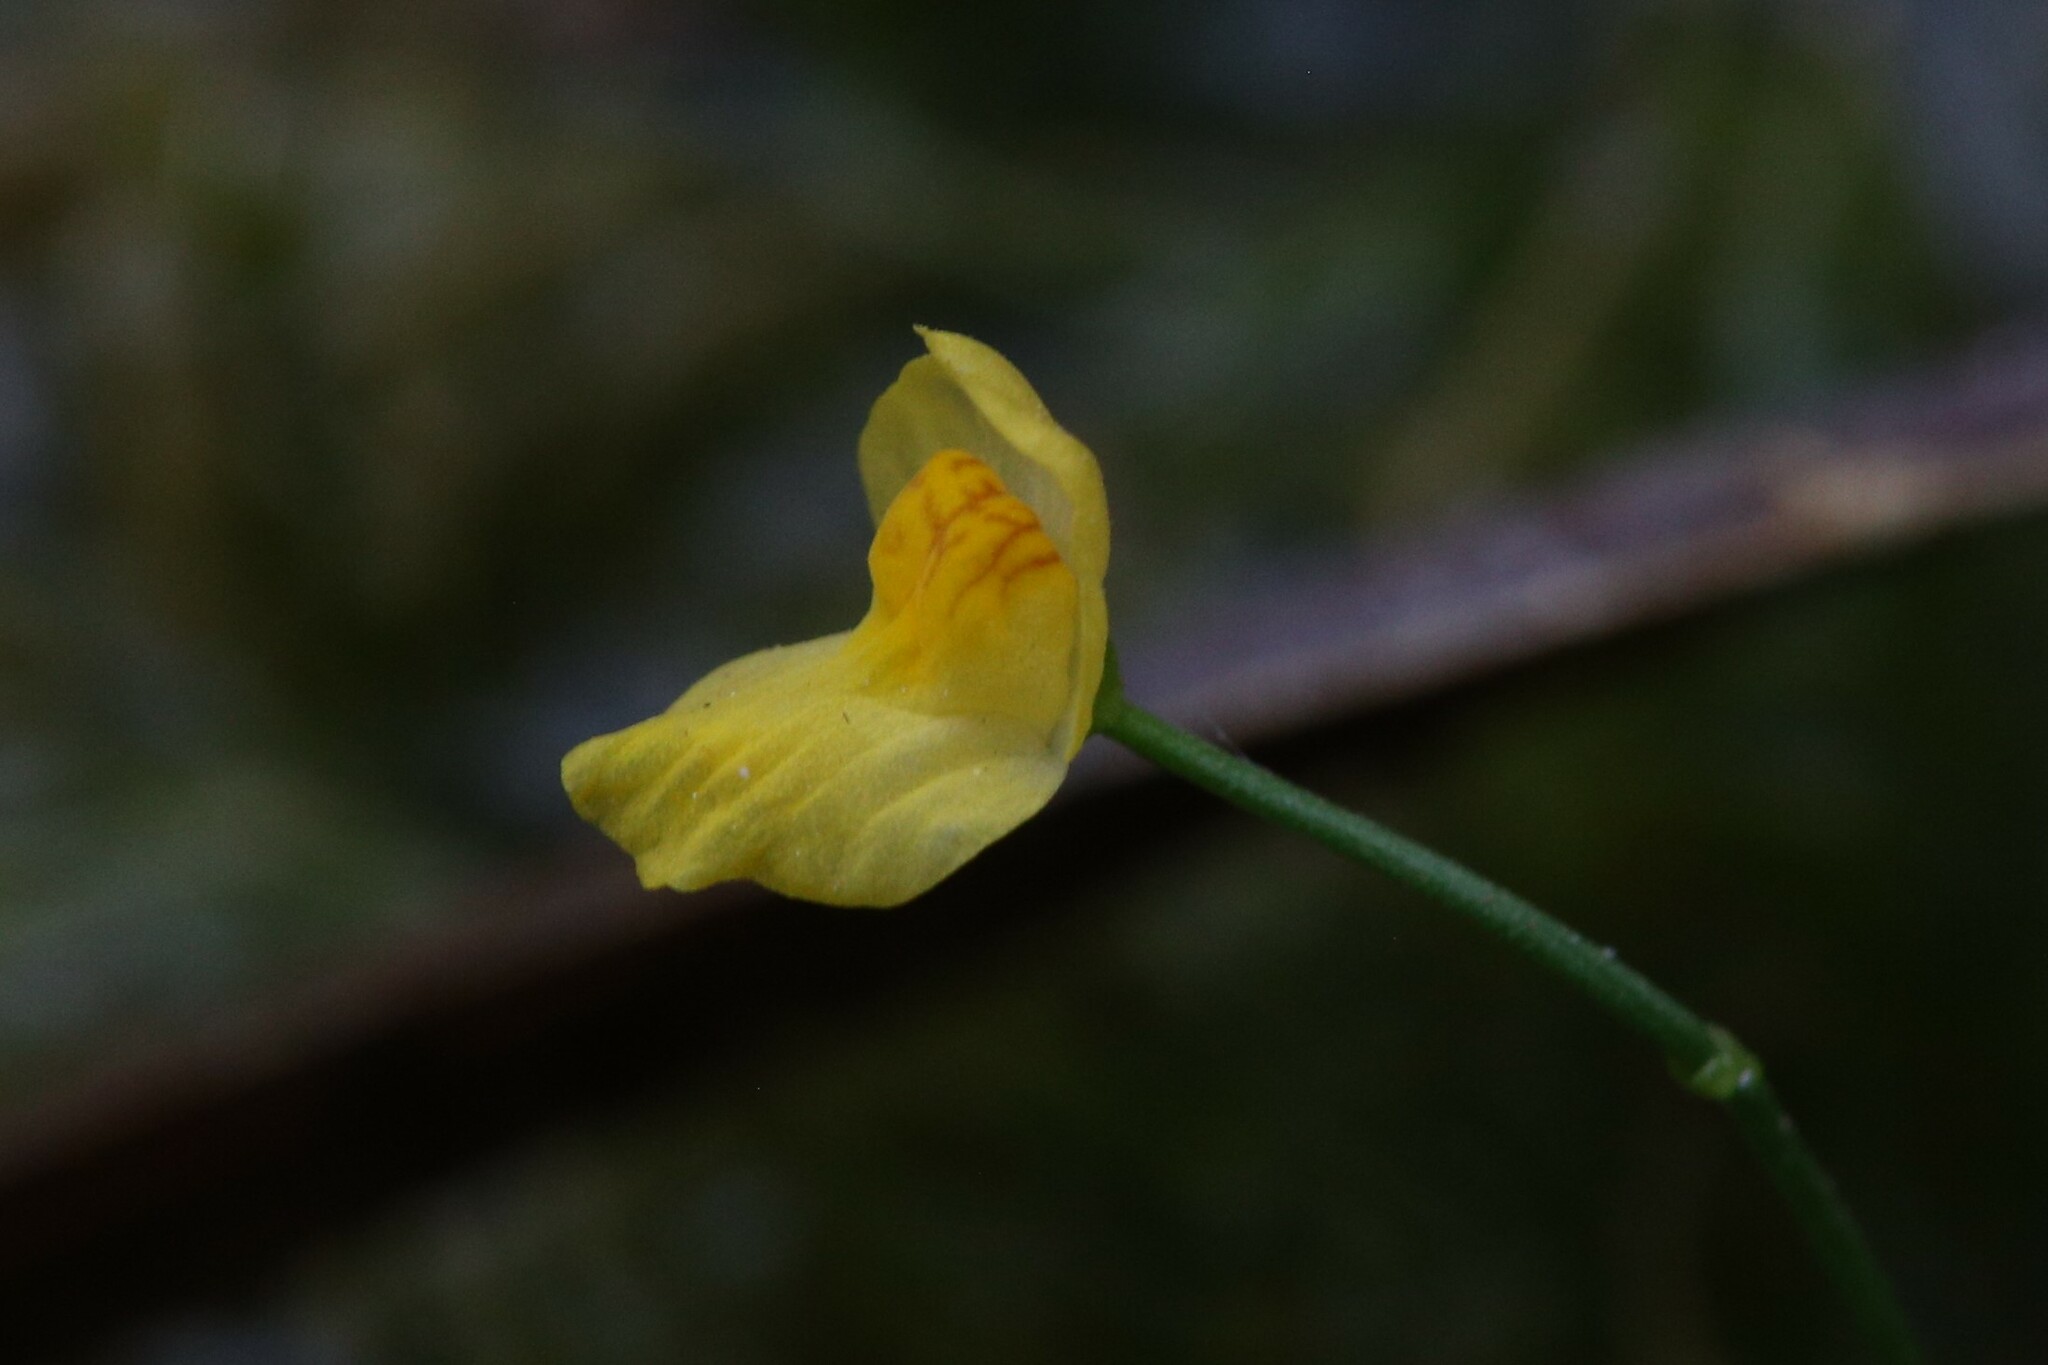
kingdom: Plantae
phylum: Tracheophyta
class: Magnoliopsida
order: Lamiales
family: Lentibulariaceae
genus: Utricularia
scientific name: Utricularia gibba
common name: Humped bladderwort
